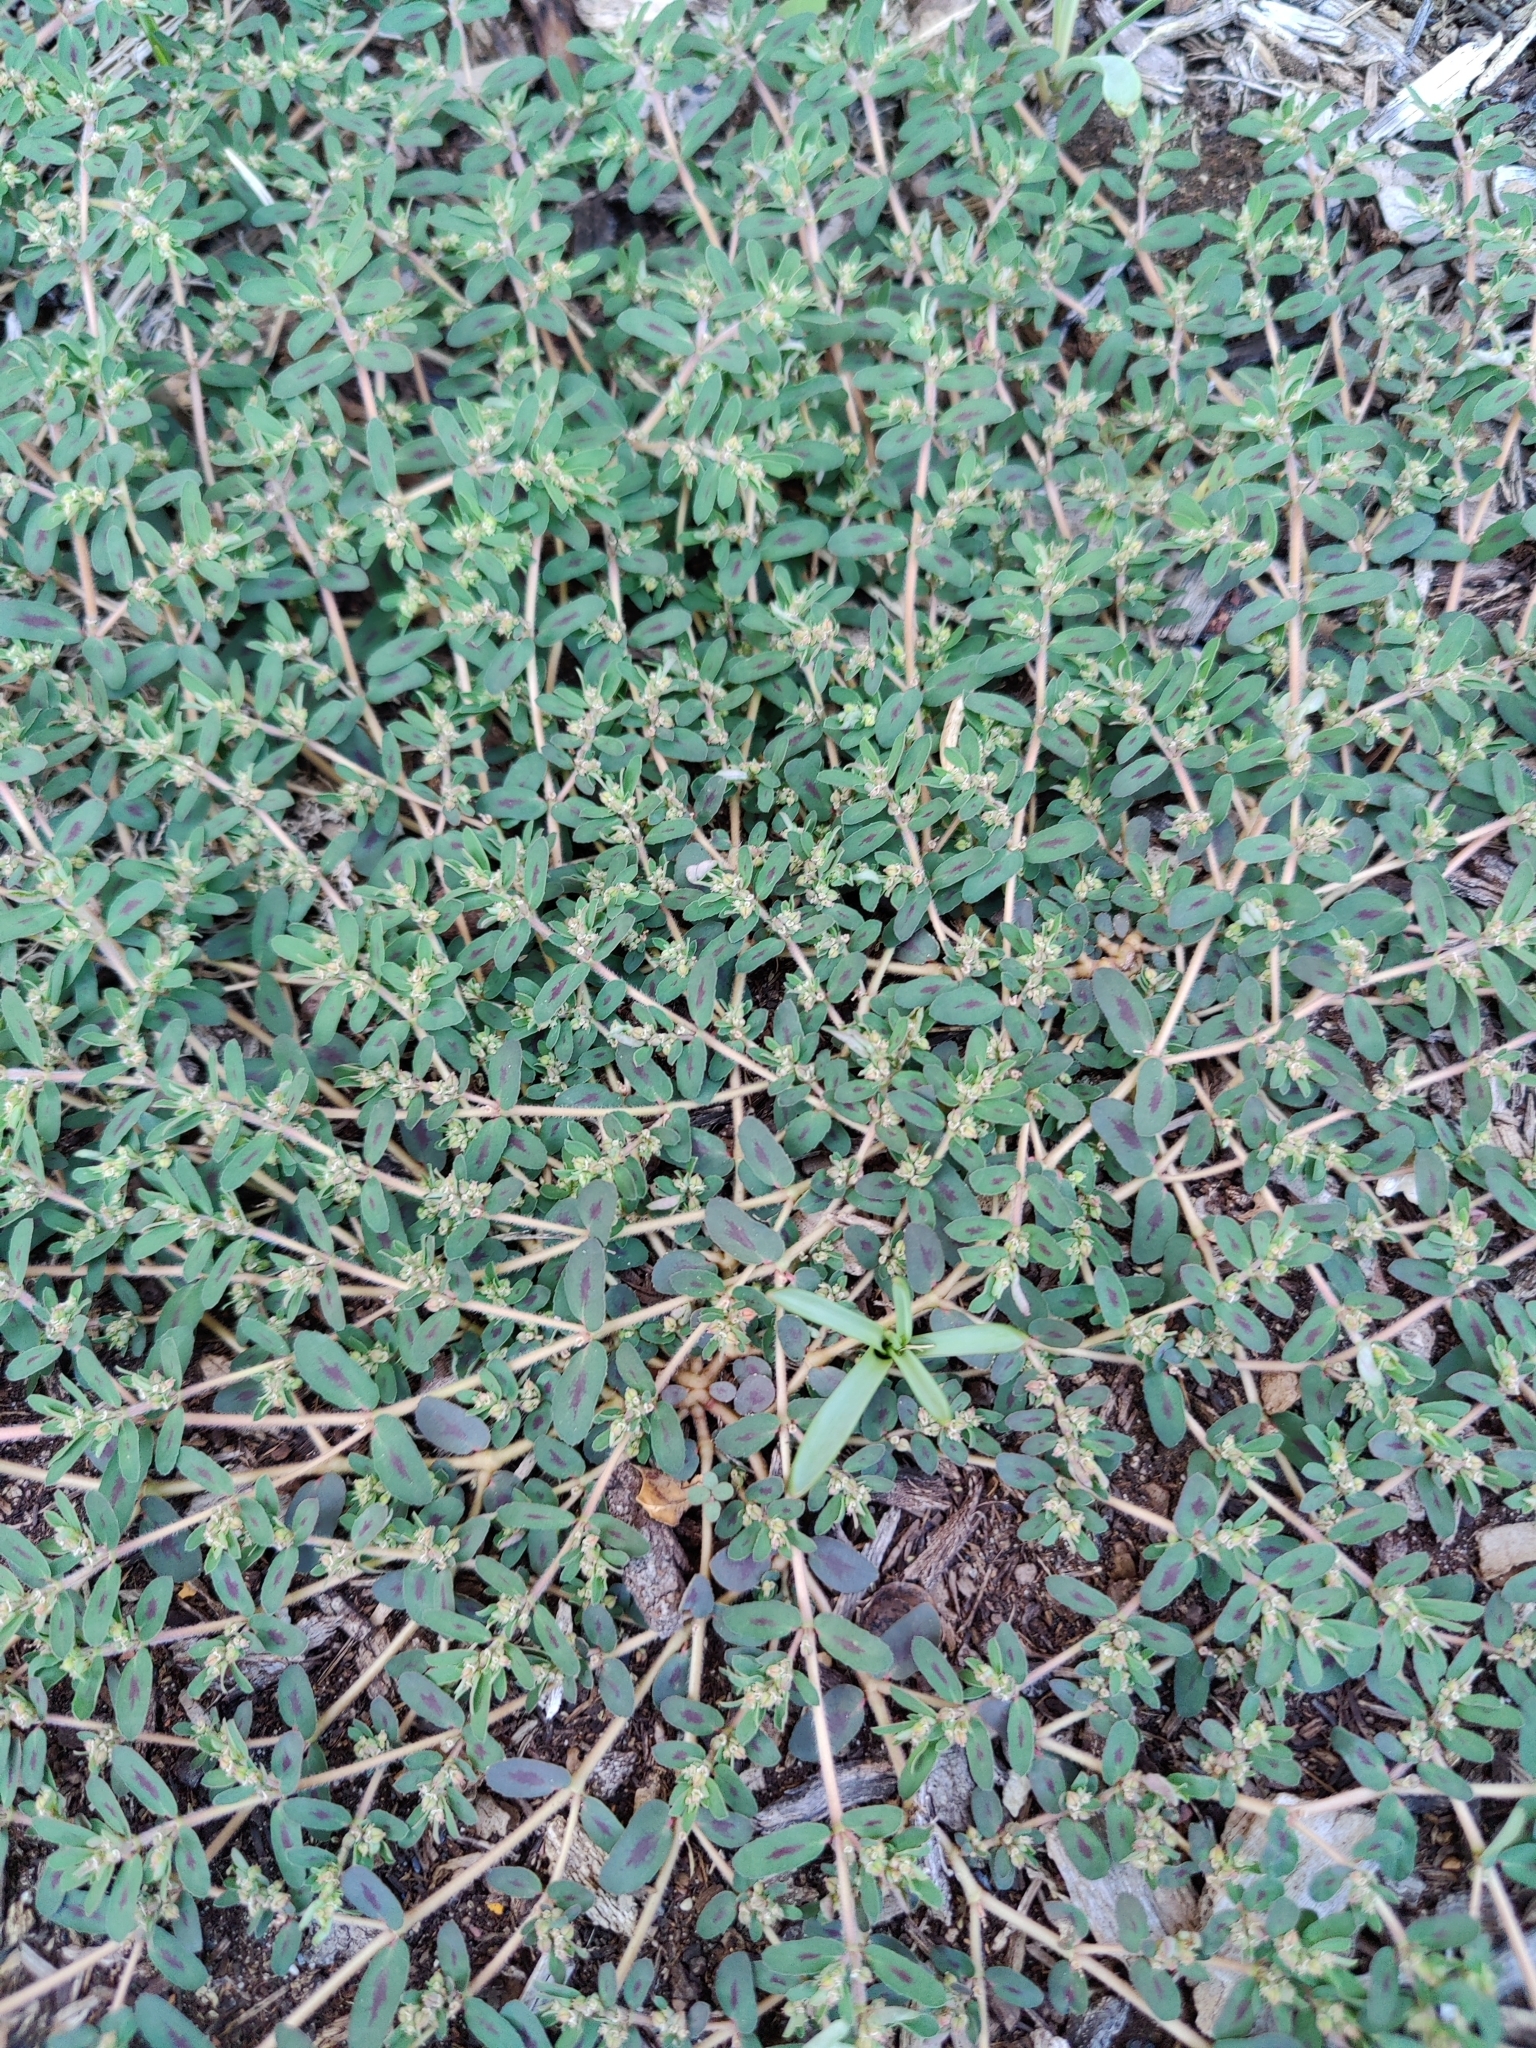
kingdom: Plantae
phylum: Tracheophyta
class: Magnoliopsida
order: Malpighiales
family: Euphorbiaceae
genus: Euphorbia
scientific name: Euphorbia maculata
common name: Spotted spurge
